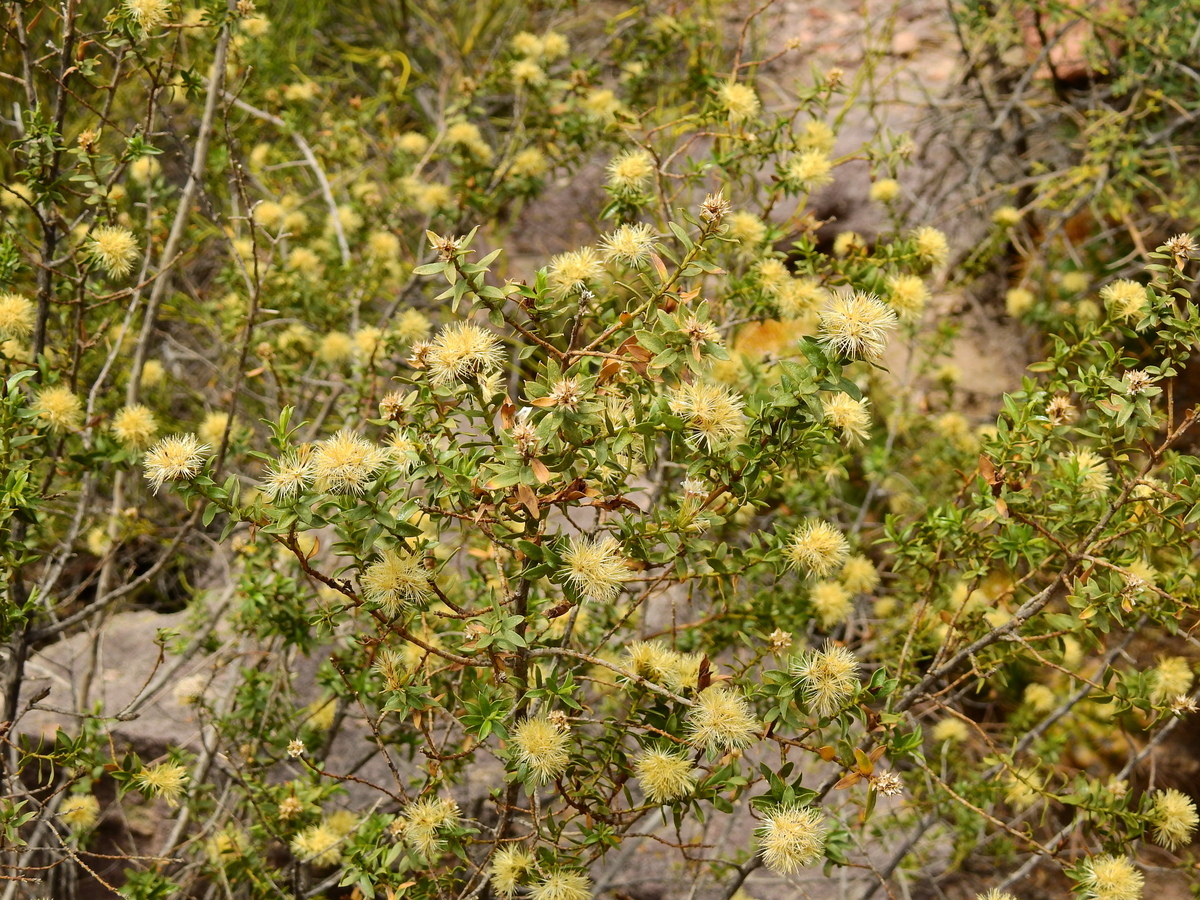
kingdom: Plantae
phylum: Tracheophyta
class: Magnoliopsida
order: Asterales
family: Asteraceae
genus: Gochnatia
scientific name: Gochnatia glutinosa
